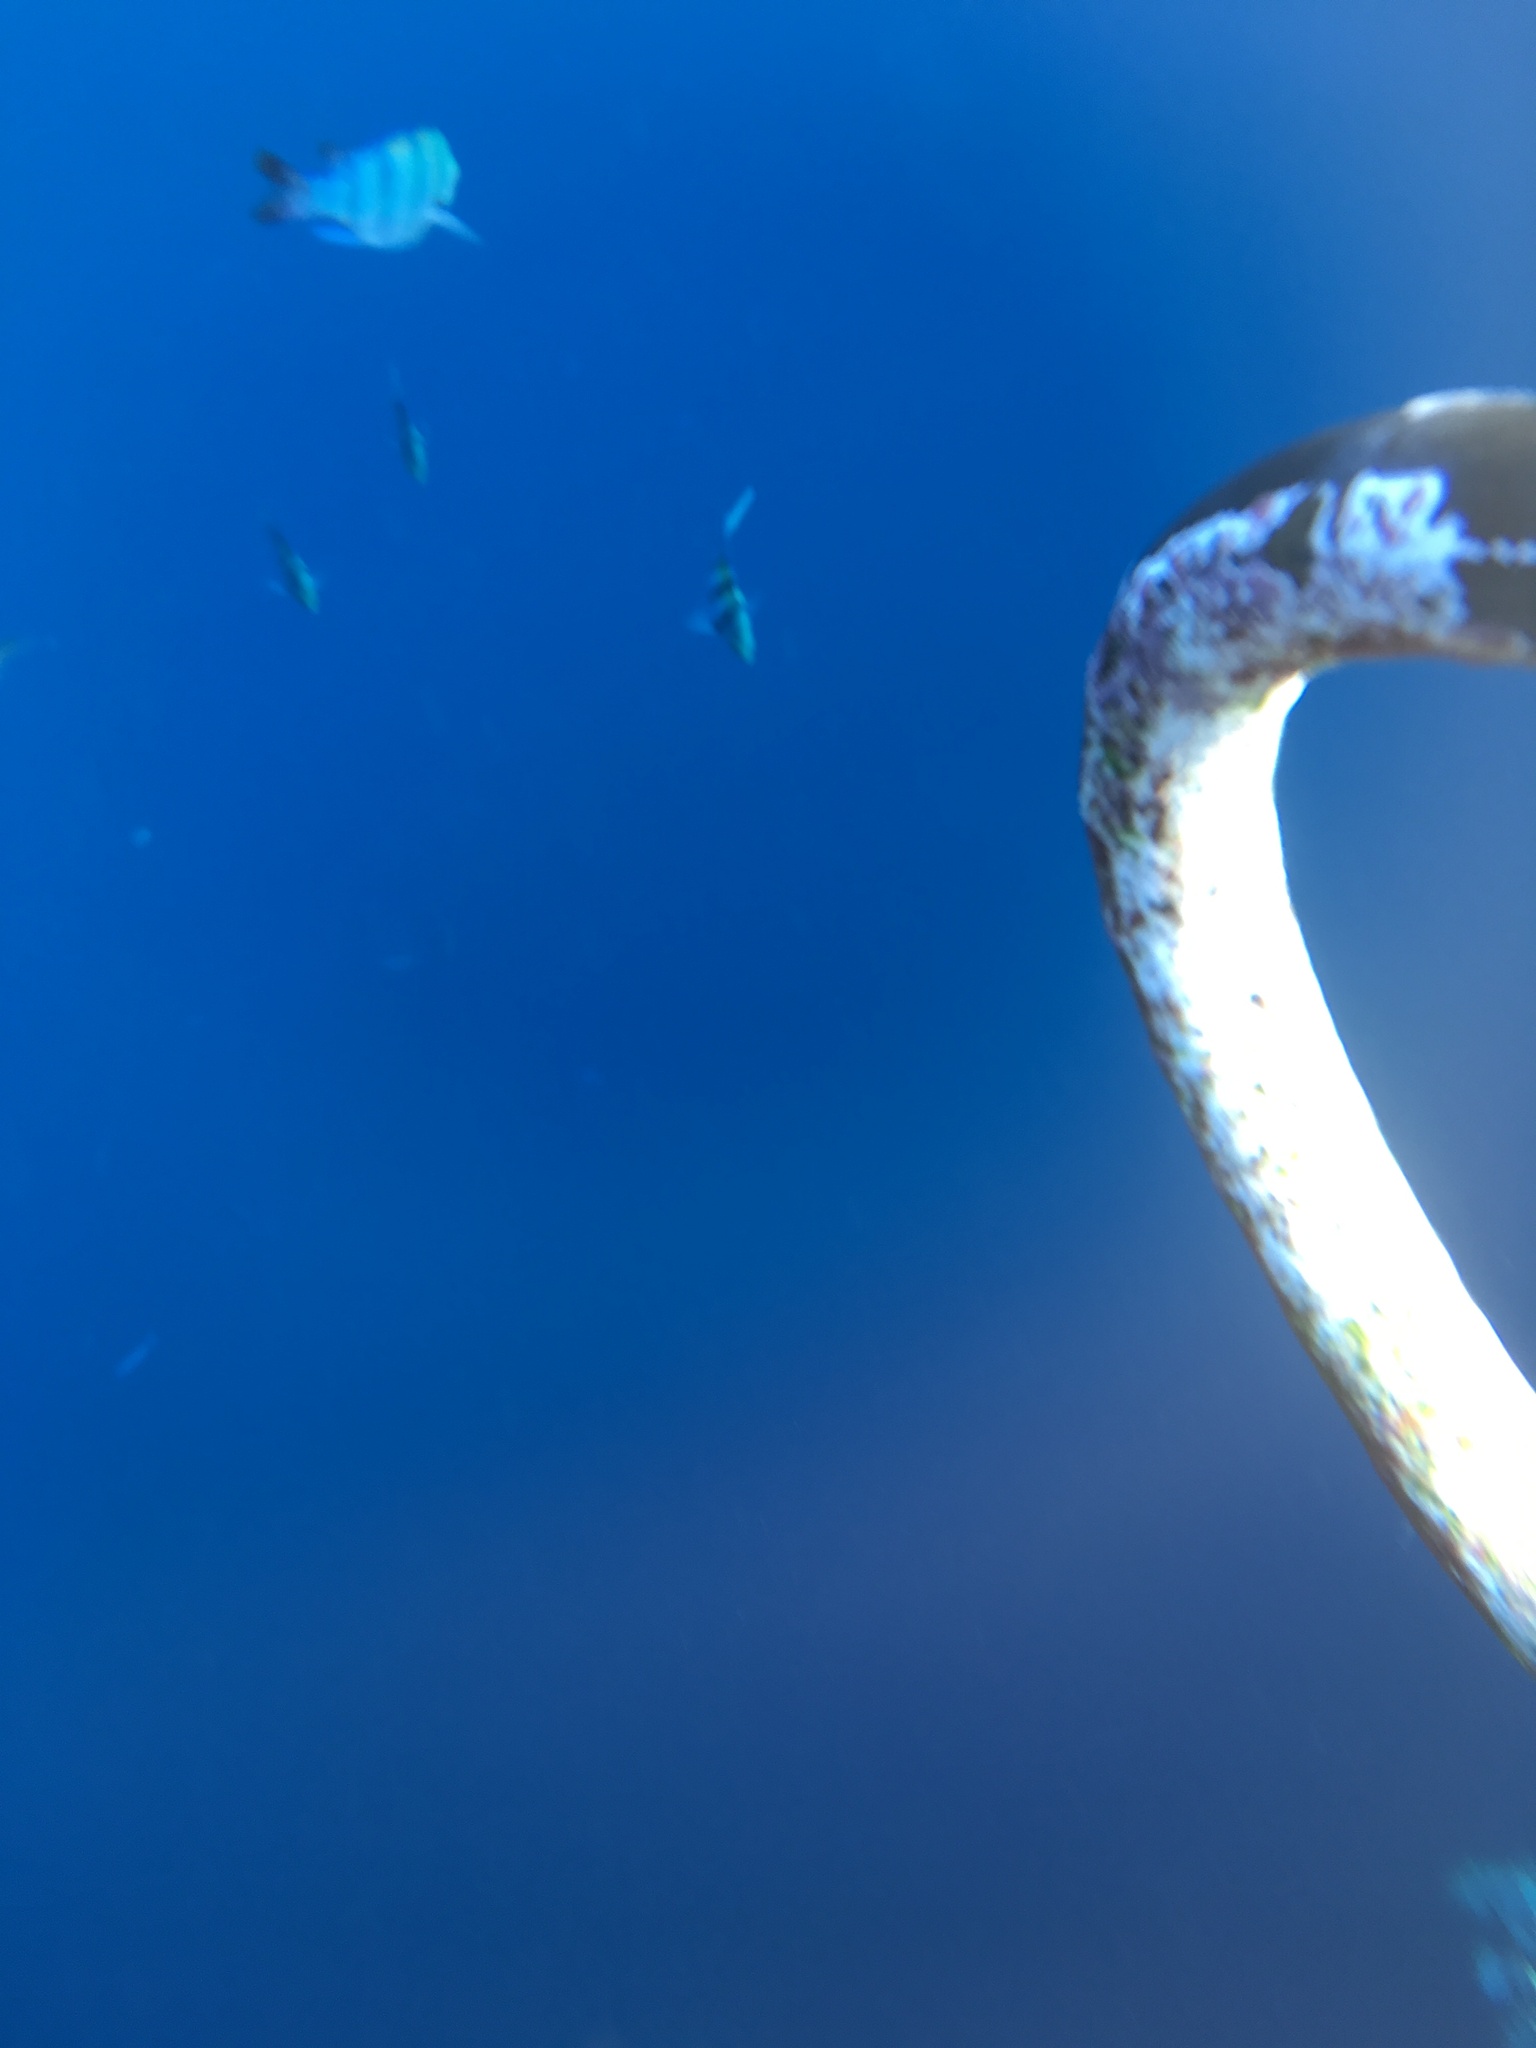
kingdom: Animalia
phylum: Chordata
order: Perciformes
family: Pomacentridae
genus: Abudefduf
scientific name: Abudefduf vaigiensis
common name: Indo-pacific sergeant
